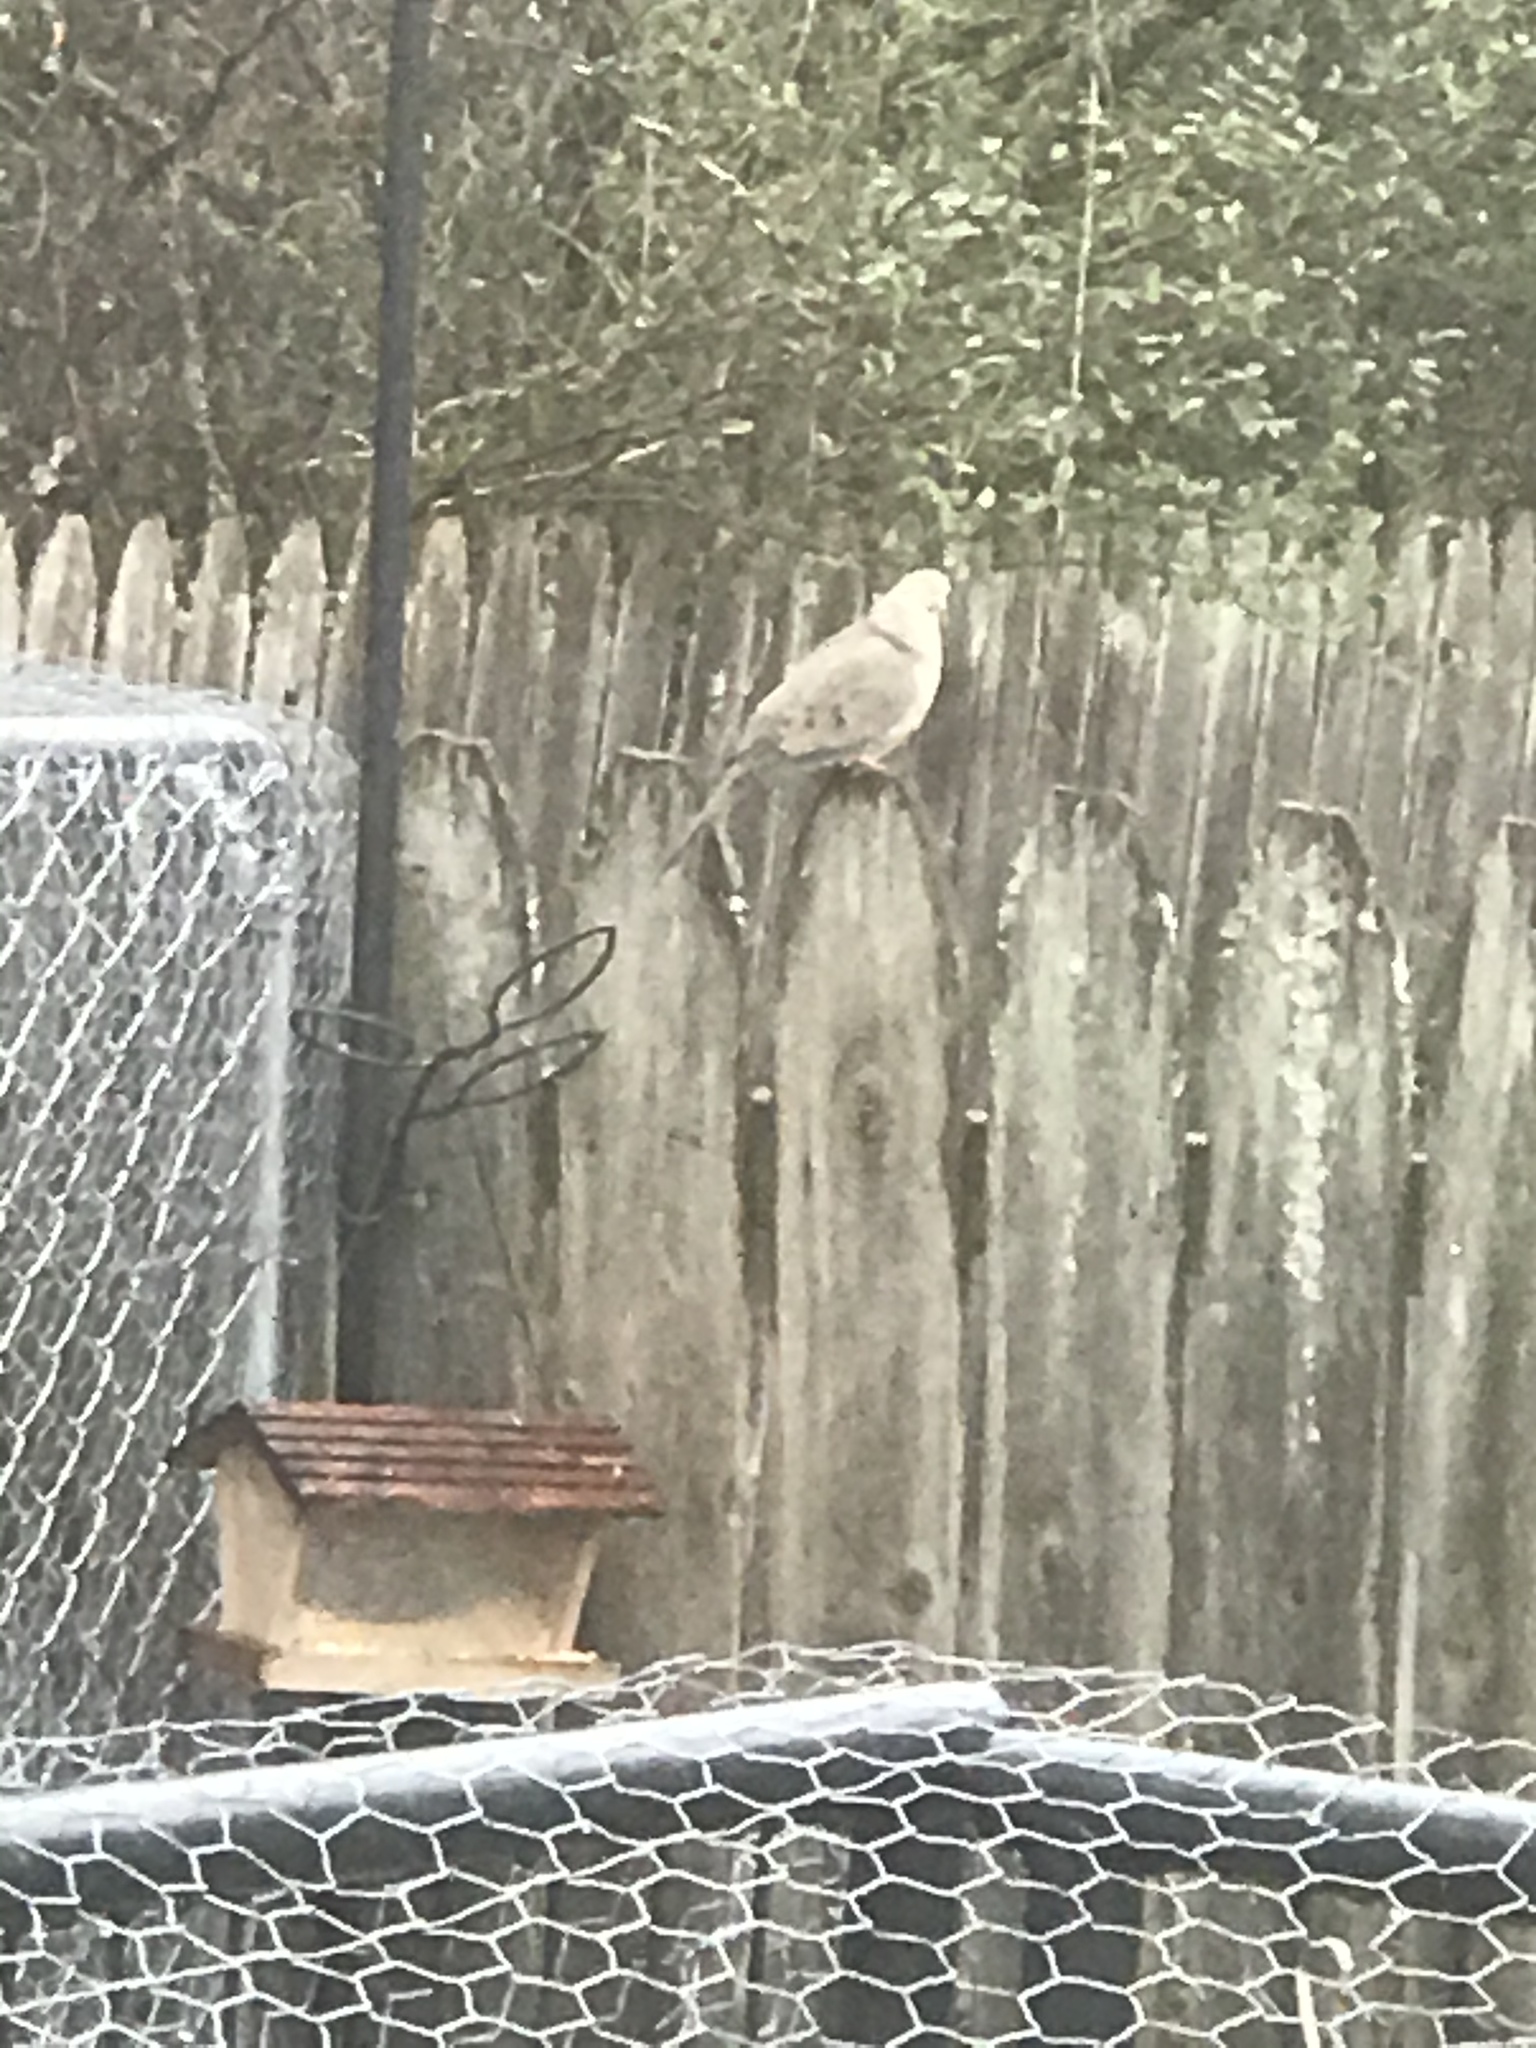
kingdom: Animalia
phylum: Chordata
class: Aves
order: Columbiformes
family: Columbidae
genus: Zenaida
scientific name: Zenaida macroura
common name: Mourning dove
